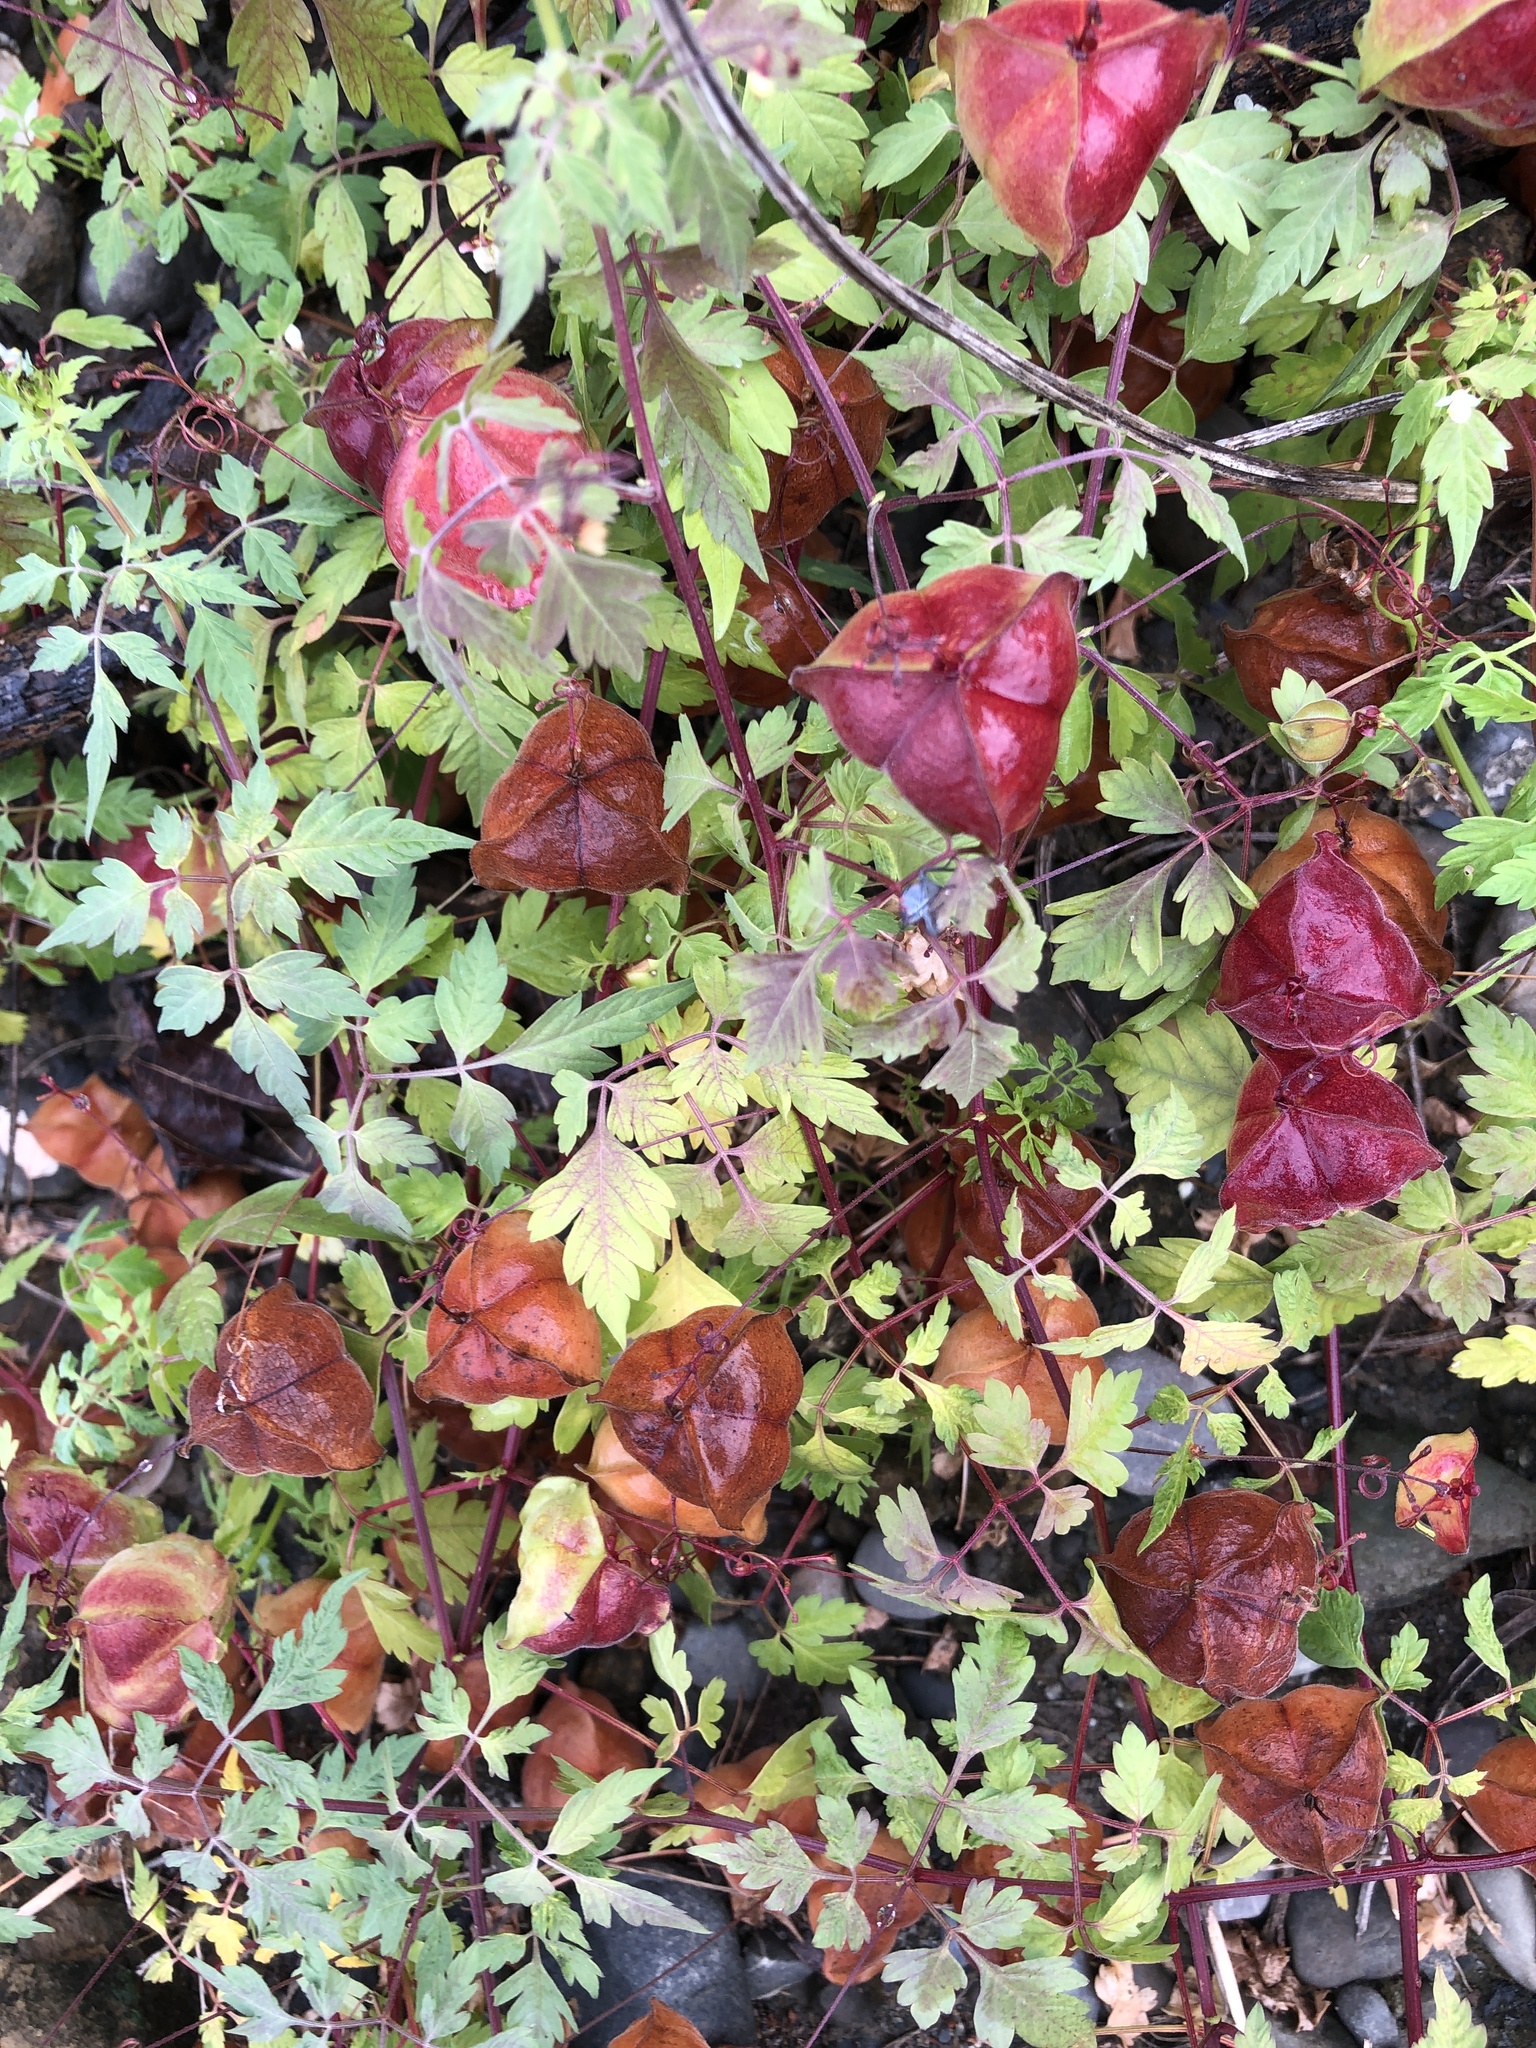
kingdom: Plantae
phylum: Tracheophyta
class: Magnoliopsida
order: Sapindales
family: Sapindaceae
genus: Cardiospermum
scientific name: Cardiospermum halicacabum
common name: Balloon vine
